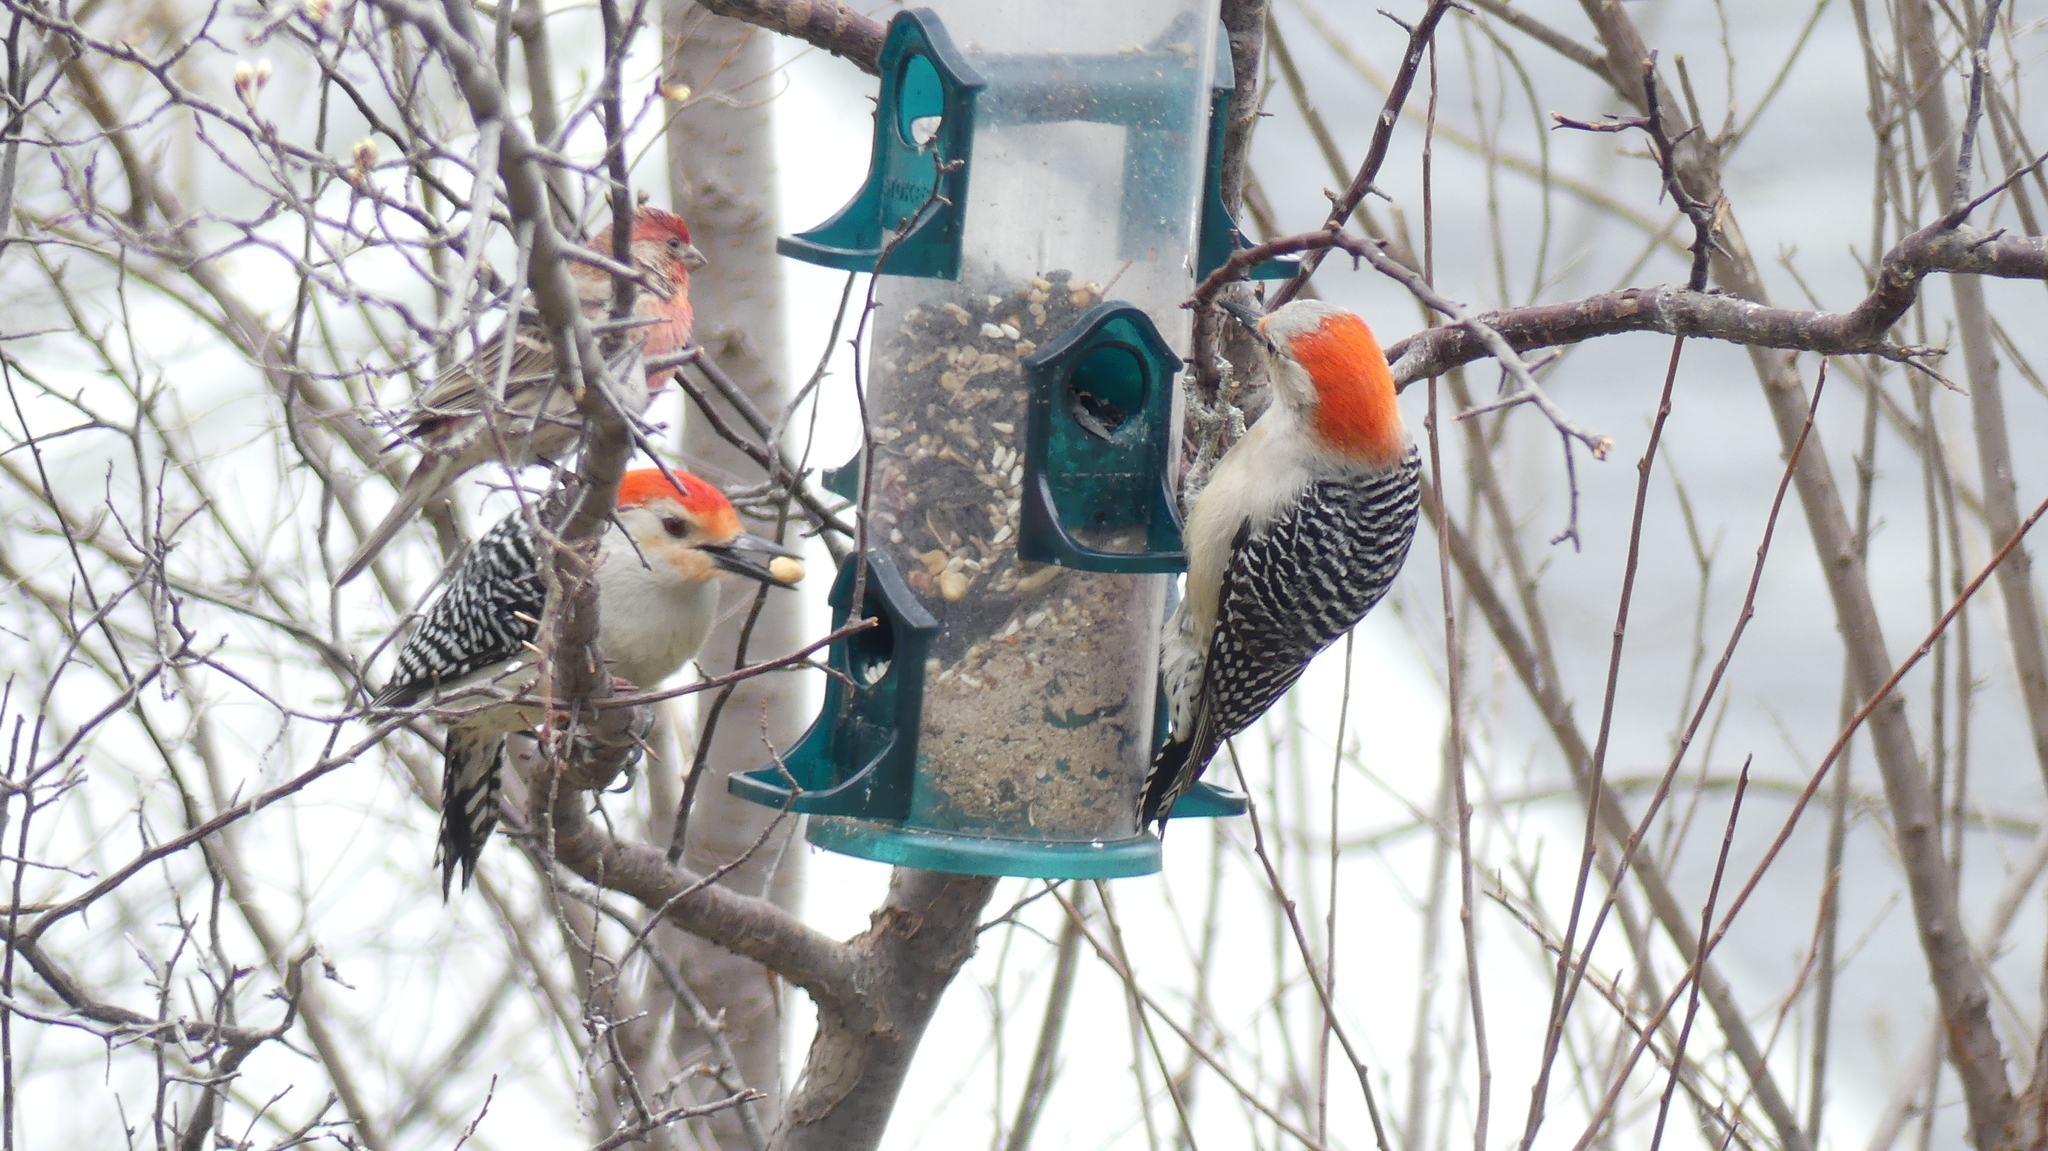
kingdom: Animalia
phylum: Chordata
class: Aves
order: Piciformes
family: Picidae
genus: Melanerpes
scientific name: Melanerpes carolinus
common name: Red-bellied woodpecker
